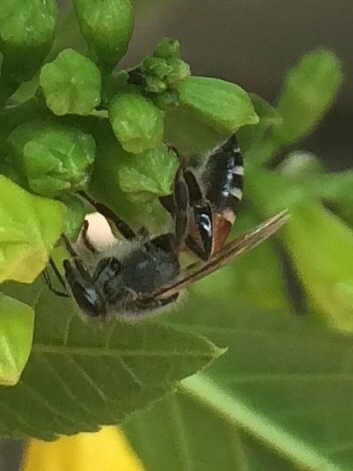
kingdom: Animalia
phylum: Arthropoda
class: Insecta
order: Hymenoptera
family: Apidae
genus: Apis
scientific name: Apis florea
